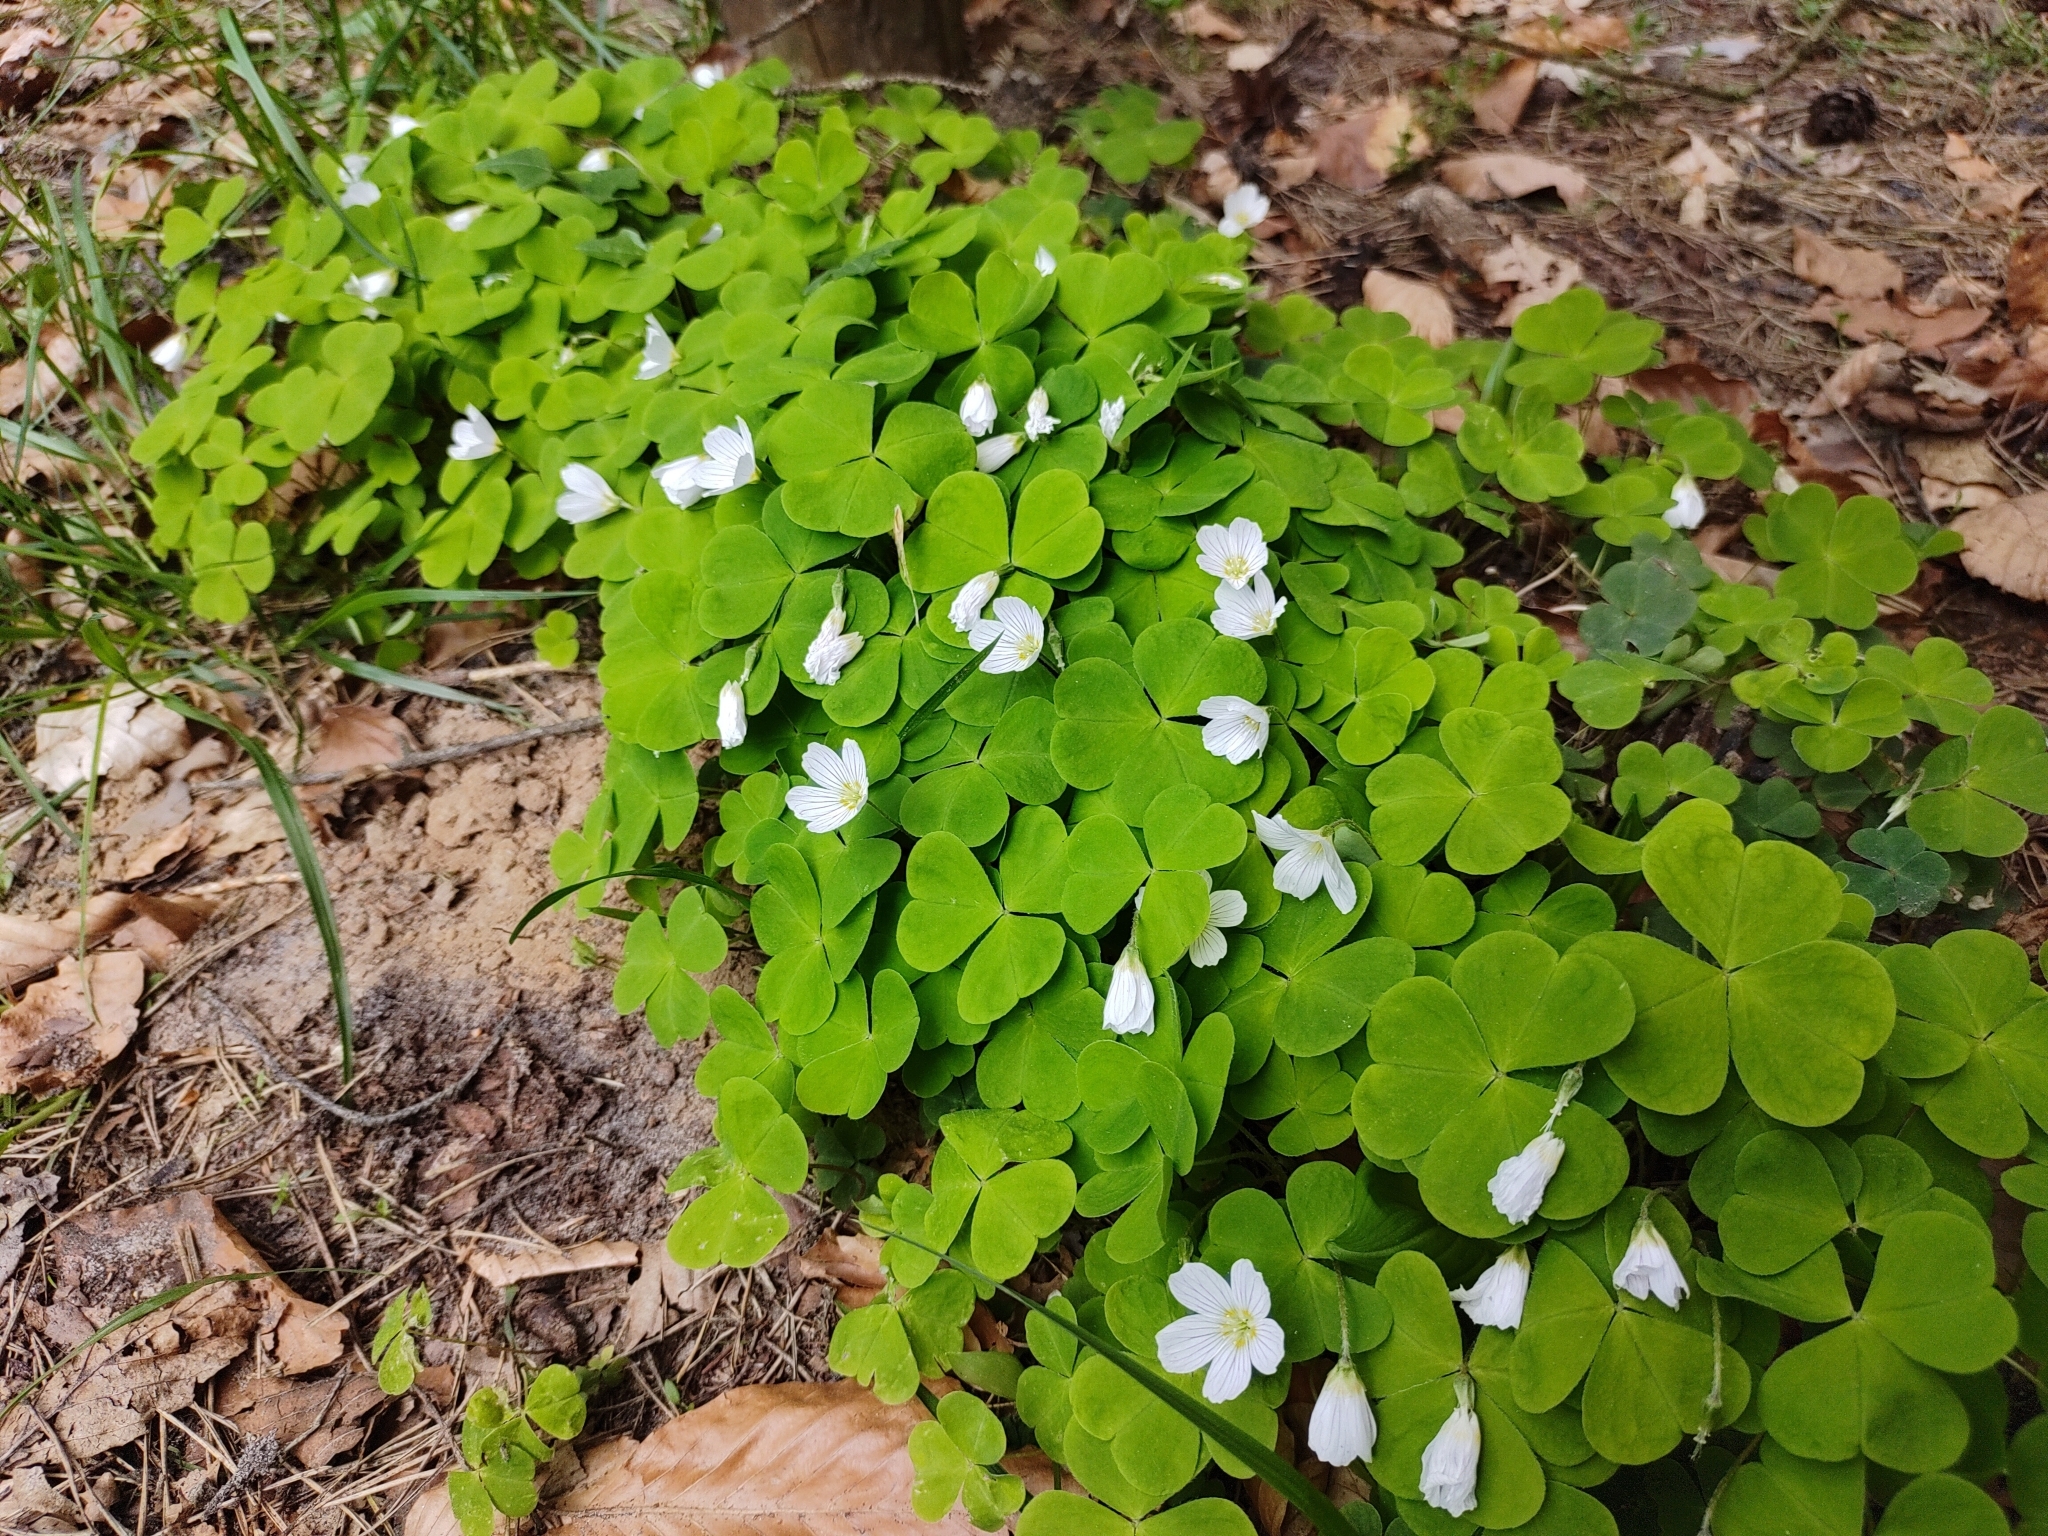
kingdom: Plantae
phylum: Tracheophyta
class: Magnoliopsida
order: Oxalidales
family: Oxalidaceae
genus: Oxalis
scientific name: Oxalis acetosella
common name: Wood-sorrel
